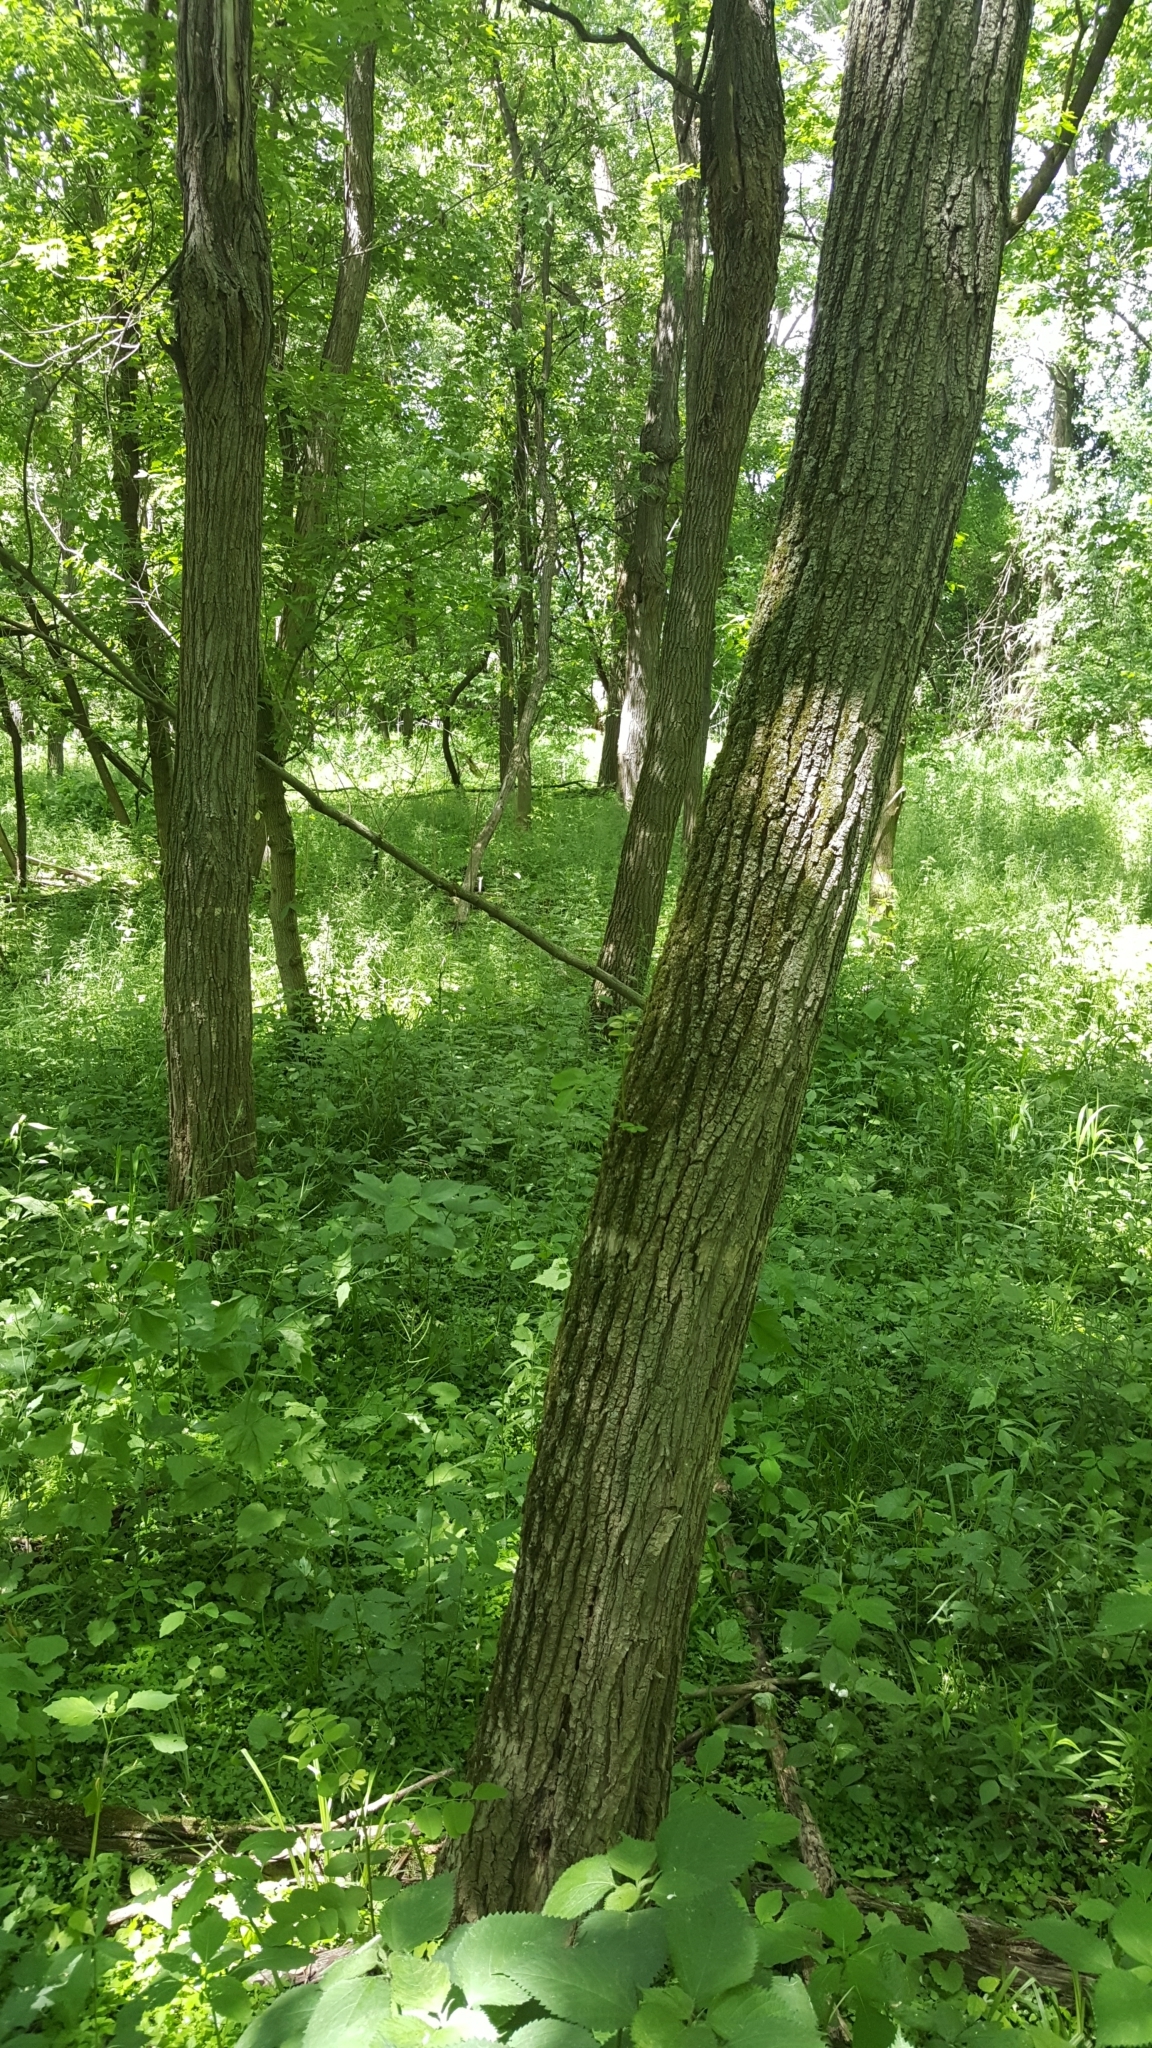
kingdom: Plantae
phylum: Tracheophyta
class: Magnoliopsida
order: Fabales
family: Fabaceae
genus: Robinia
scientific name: Robinia pseudoacacia
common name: Black locust
